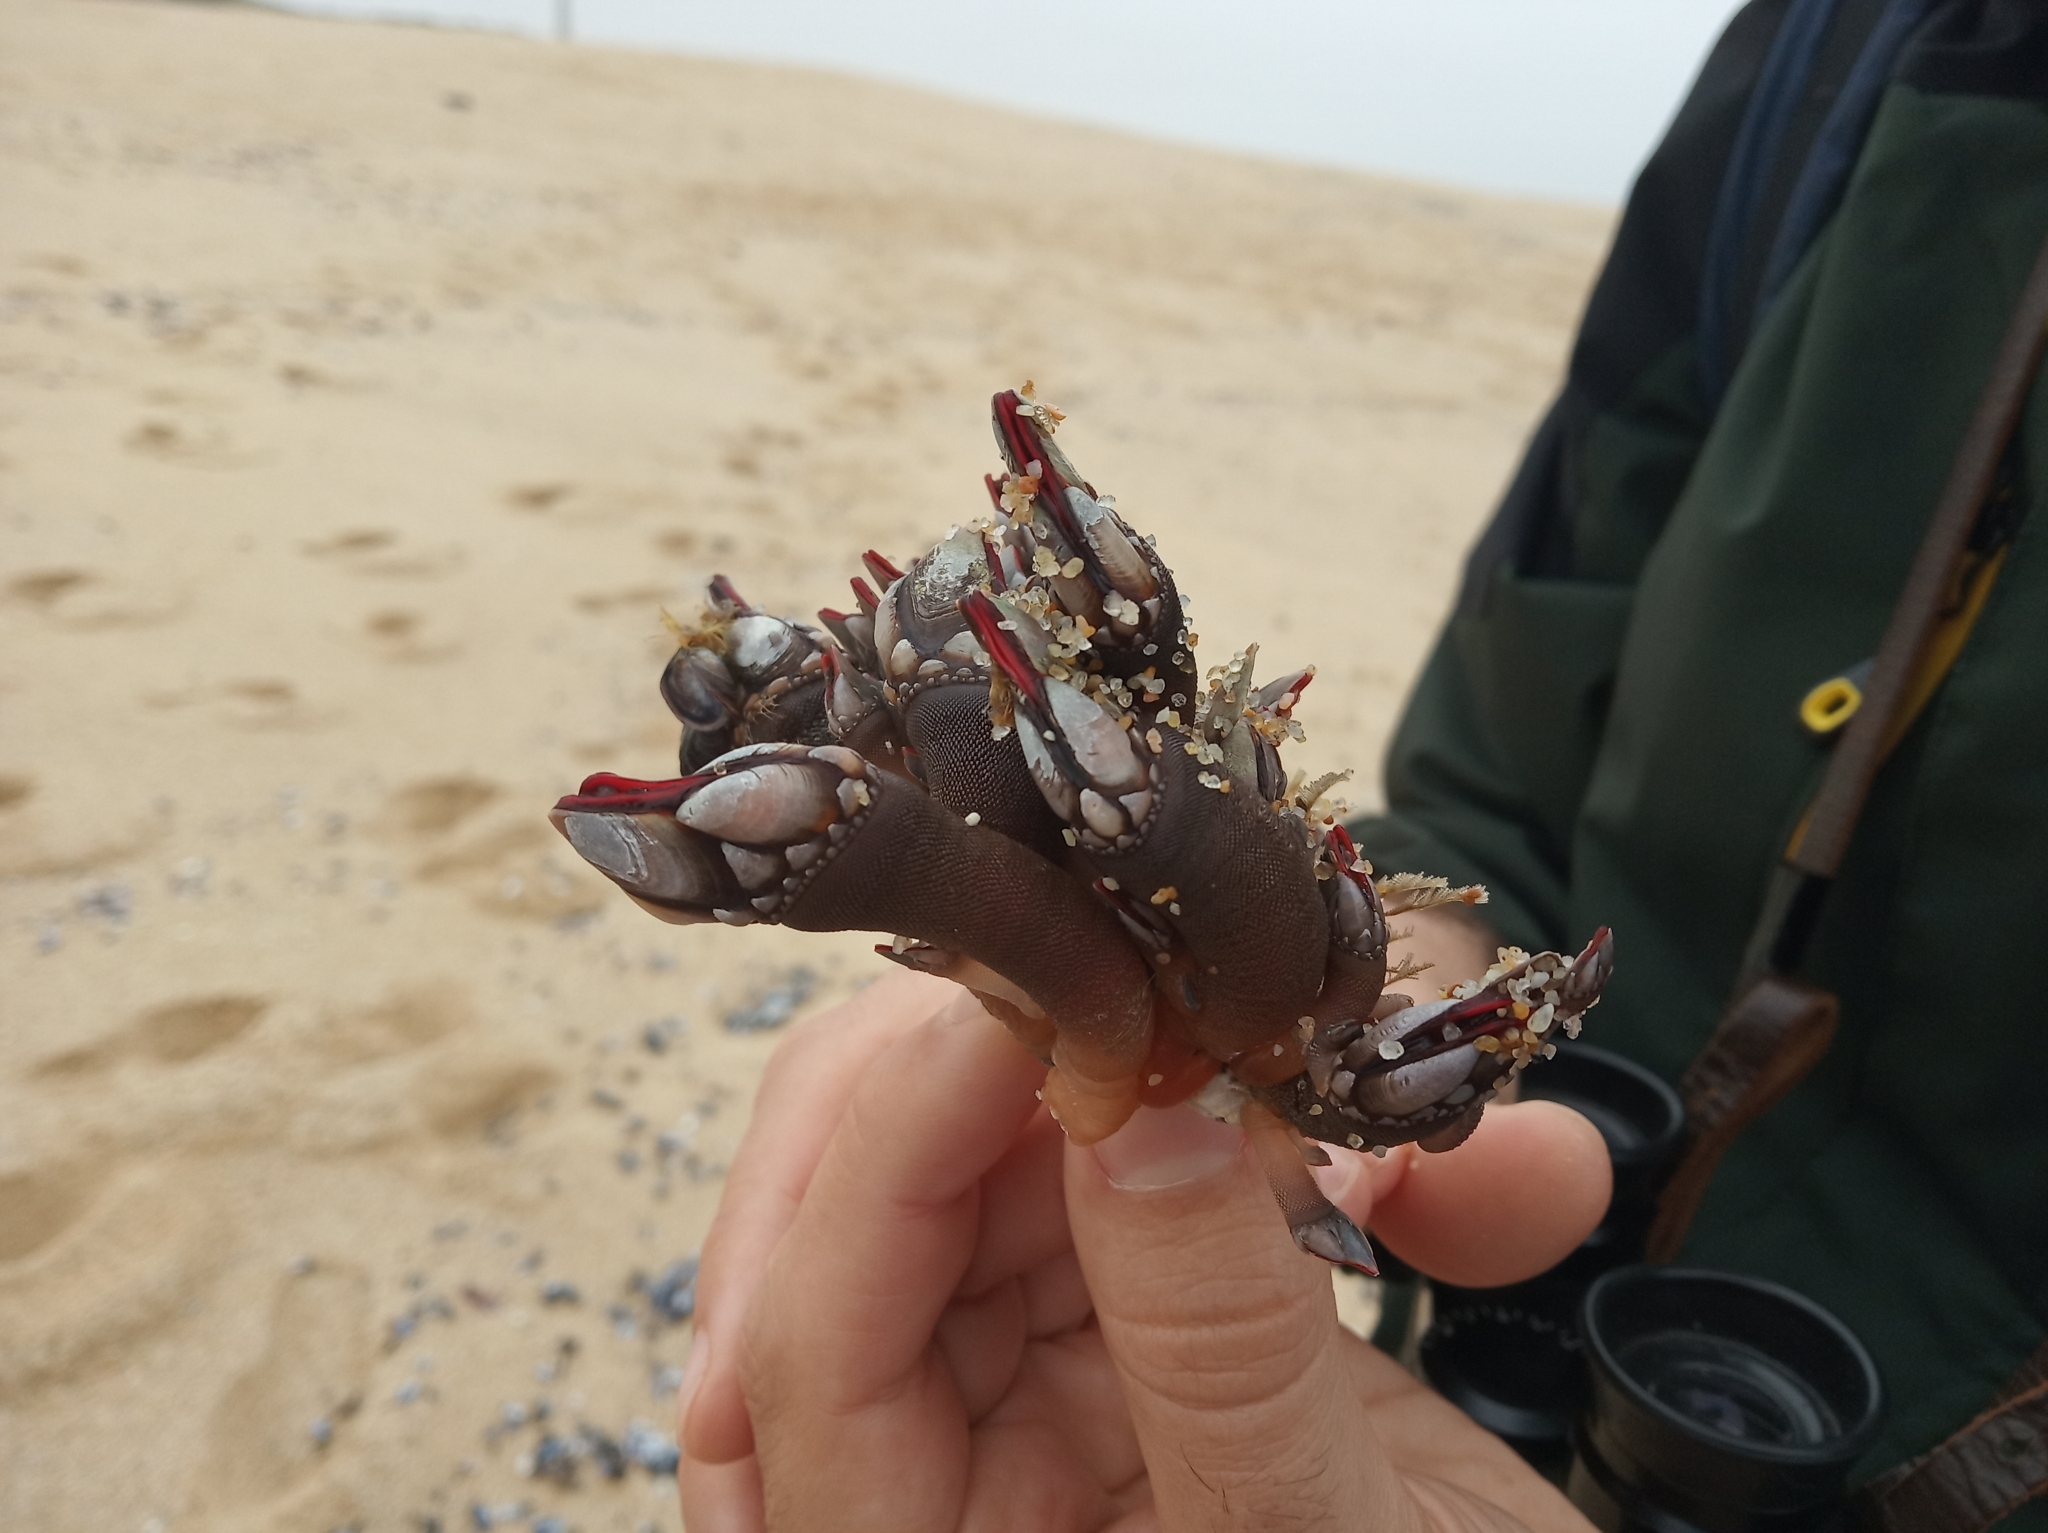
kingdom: Animalia
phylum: Arthropoda
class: Maxillopoda
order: Pedunculata
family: Pollicipedidae
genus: Pollicipes
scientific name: Pollicipes pollicipes
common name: Gooseneck barnacle
